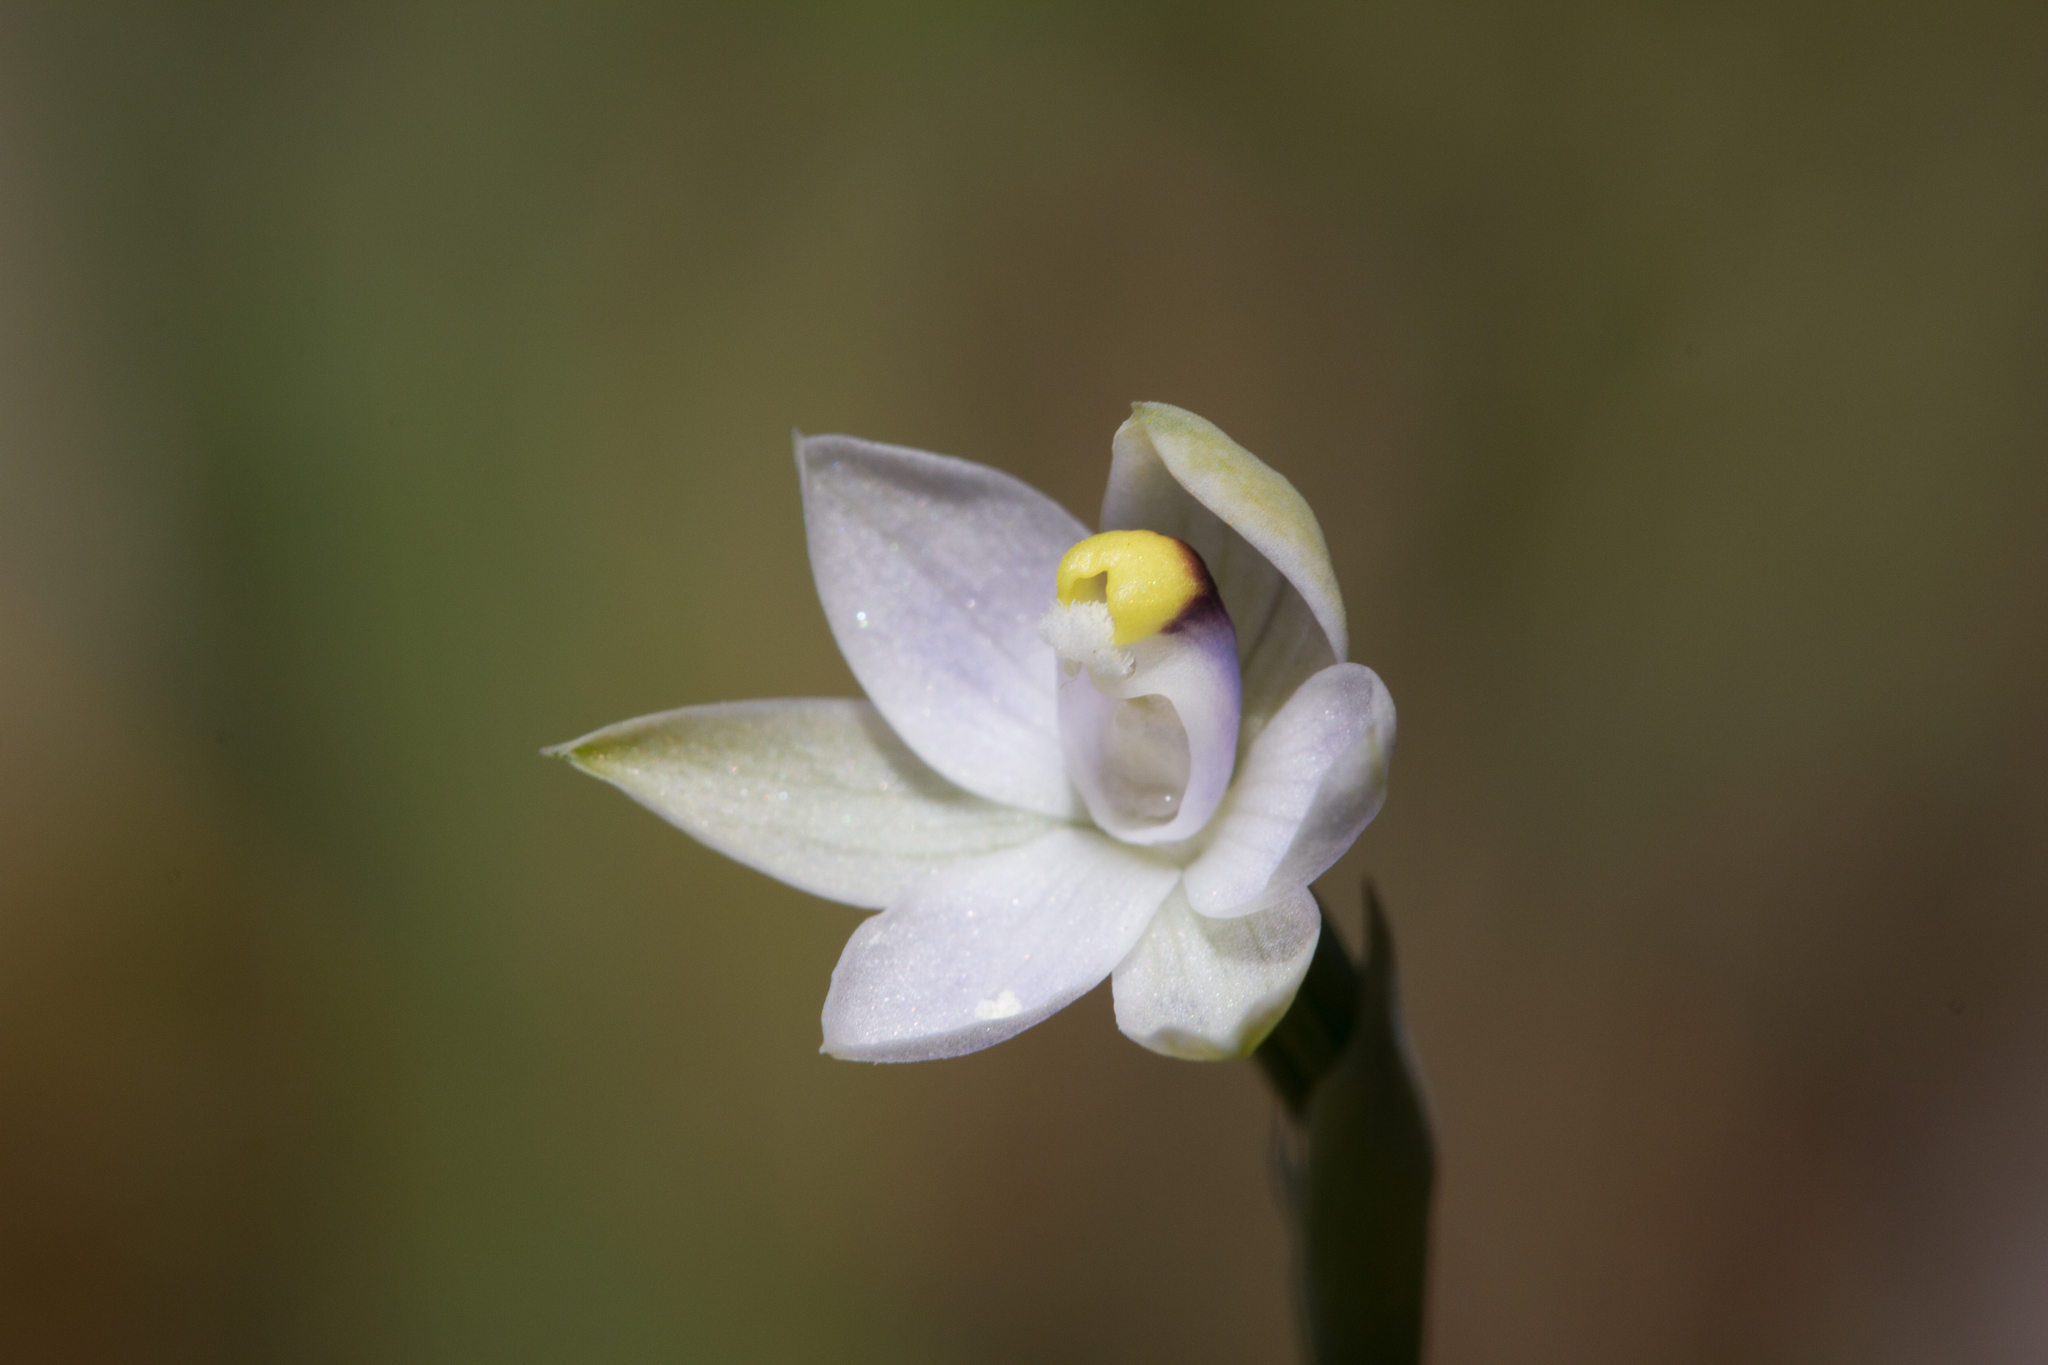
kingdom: Plantae
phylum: Tracheophyta
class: Liliopsida
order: Asparagales
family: Orchidaceae
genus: Thelymitra
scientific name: Thelymitra albiflora
